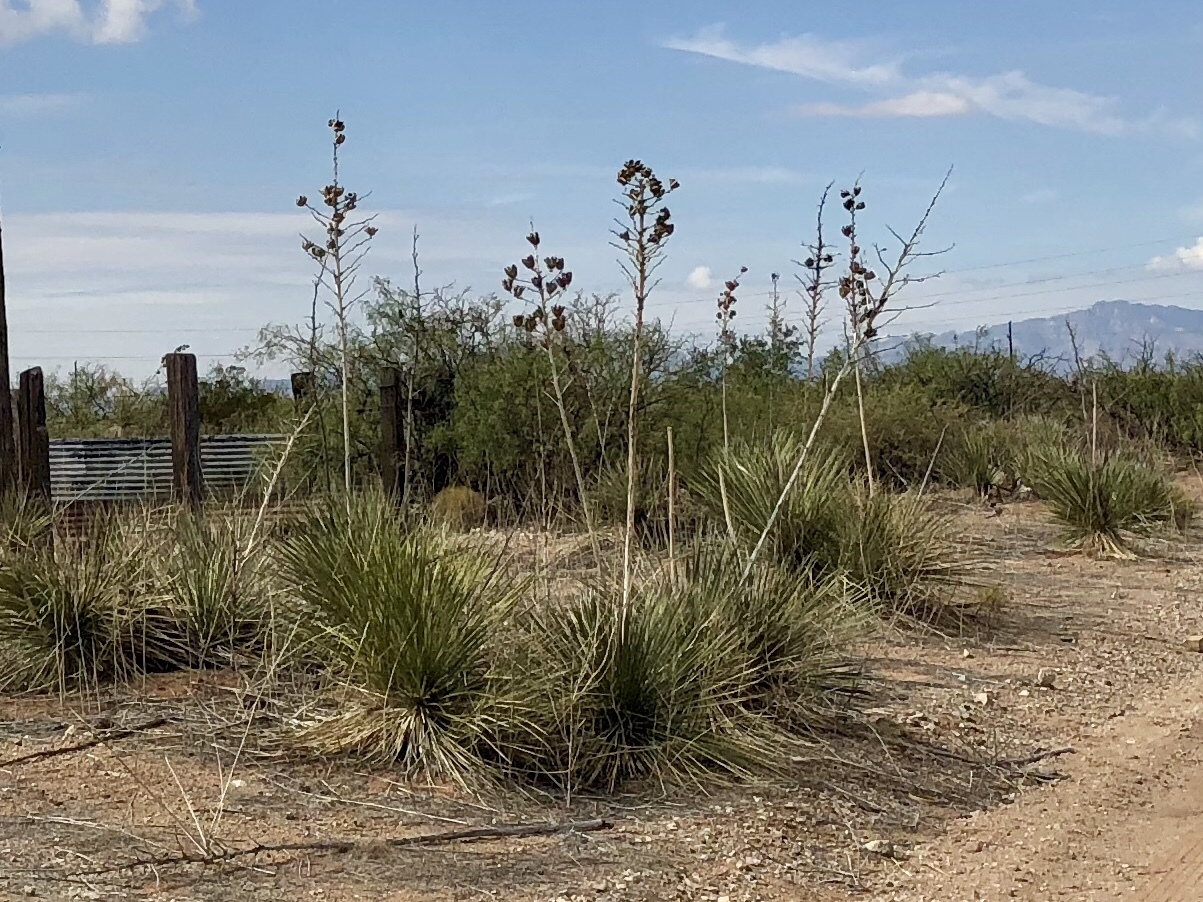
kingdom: Plantae
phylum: Tracheophyta
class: Liliopsida
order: Asparagales
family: Asparagaceae
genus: Yucca
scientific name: Yucca elata
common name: Palmella
